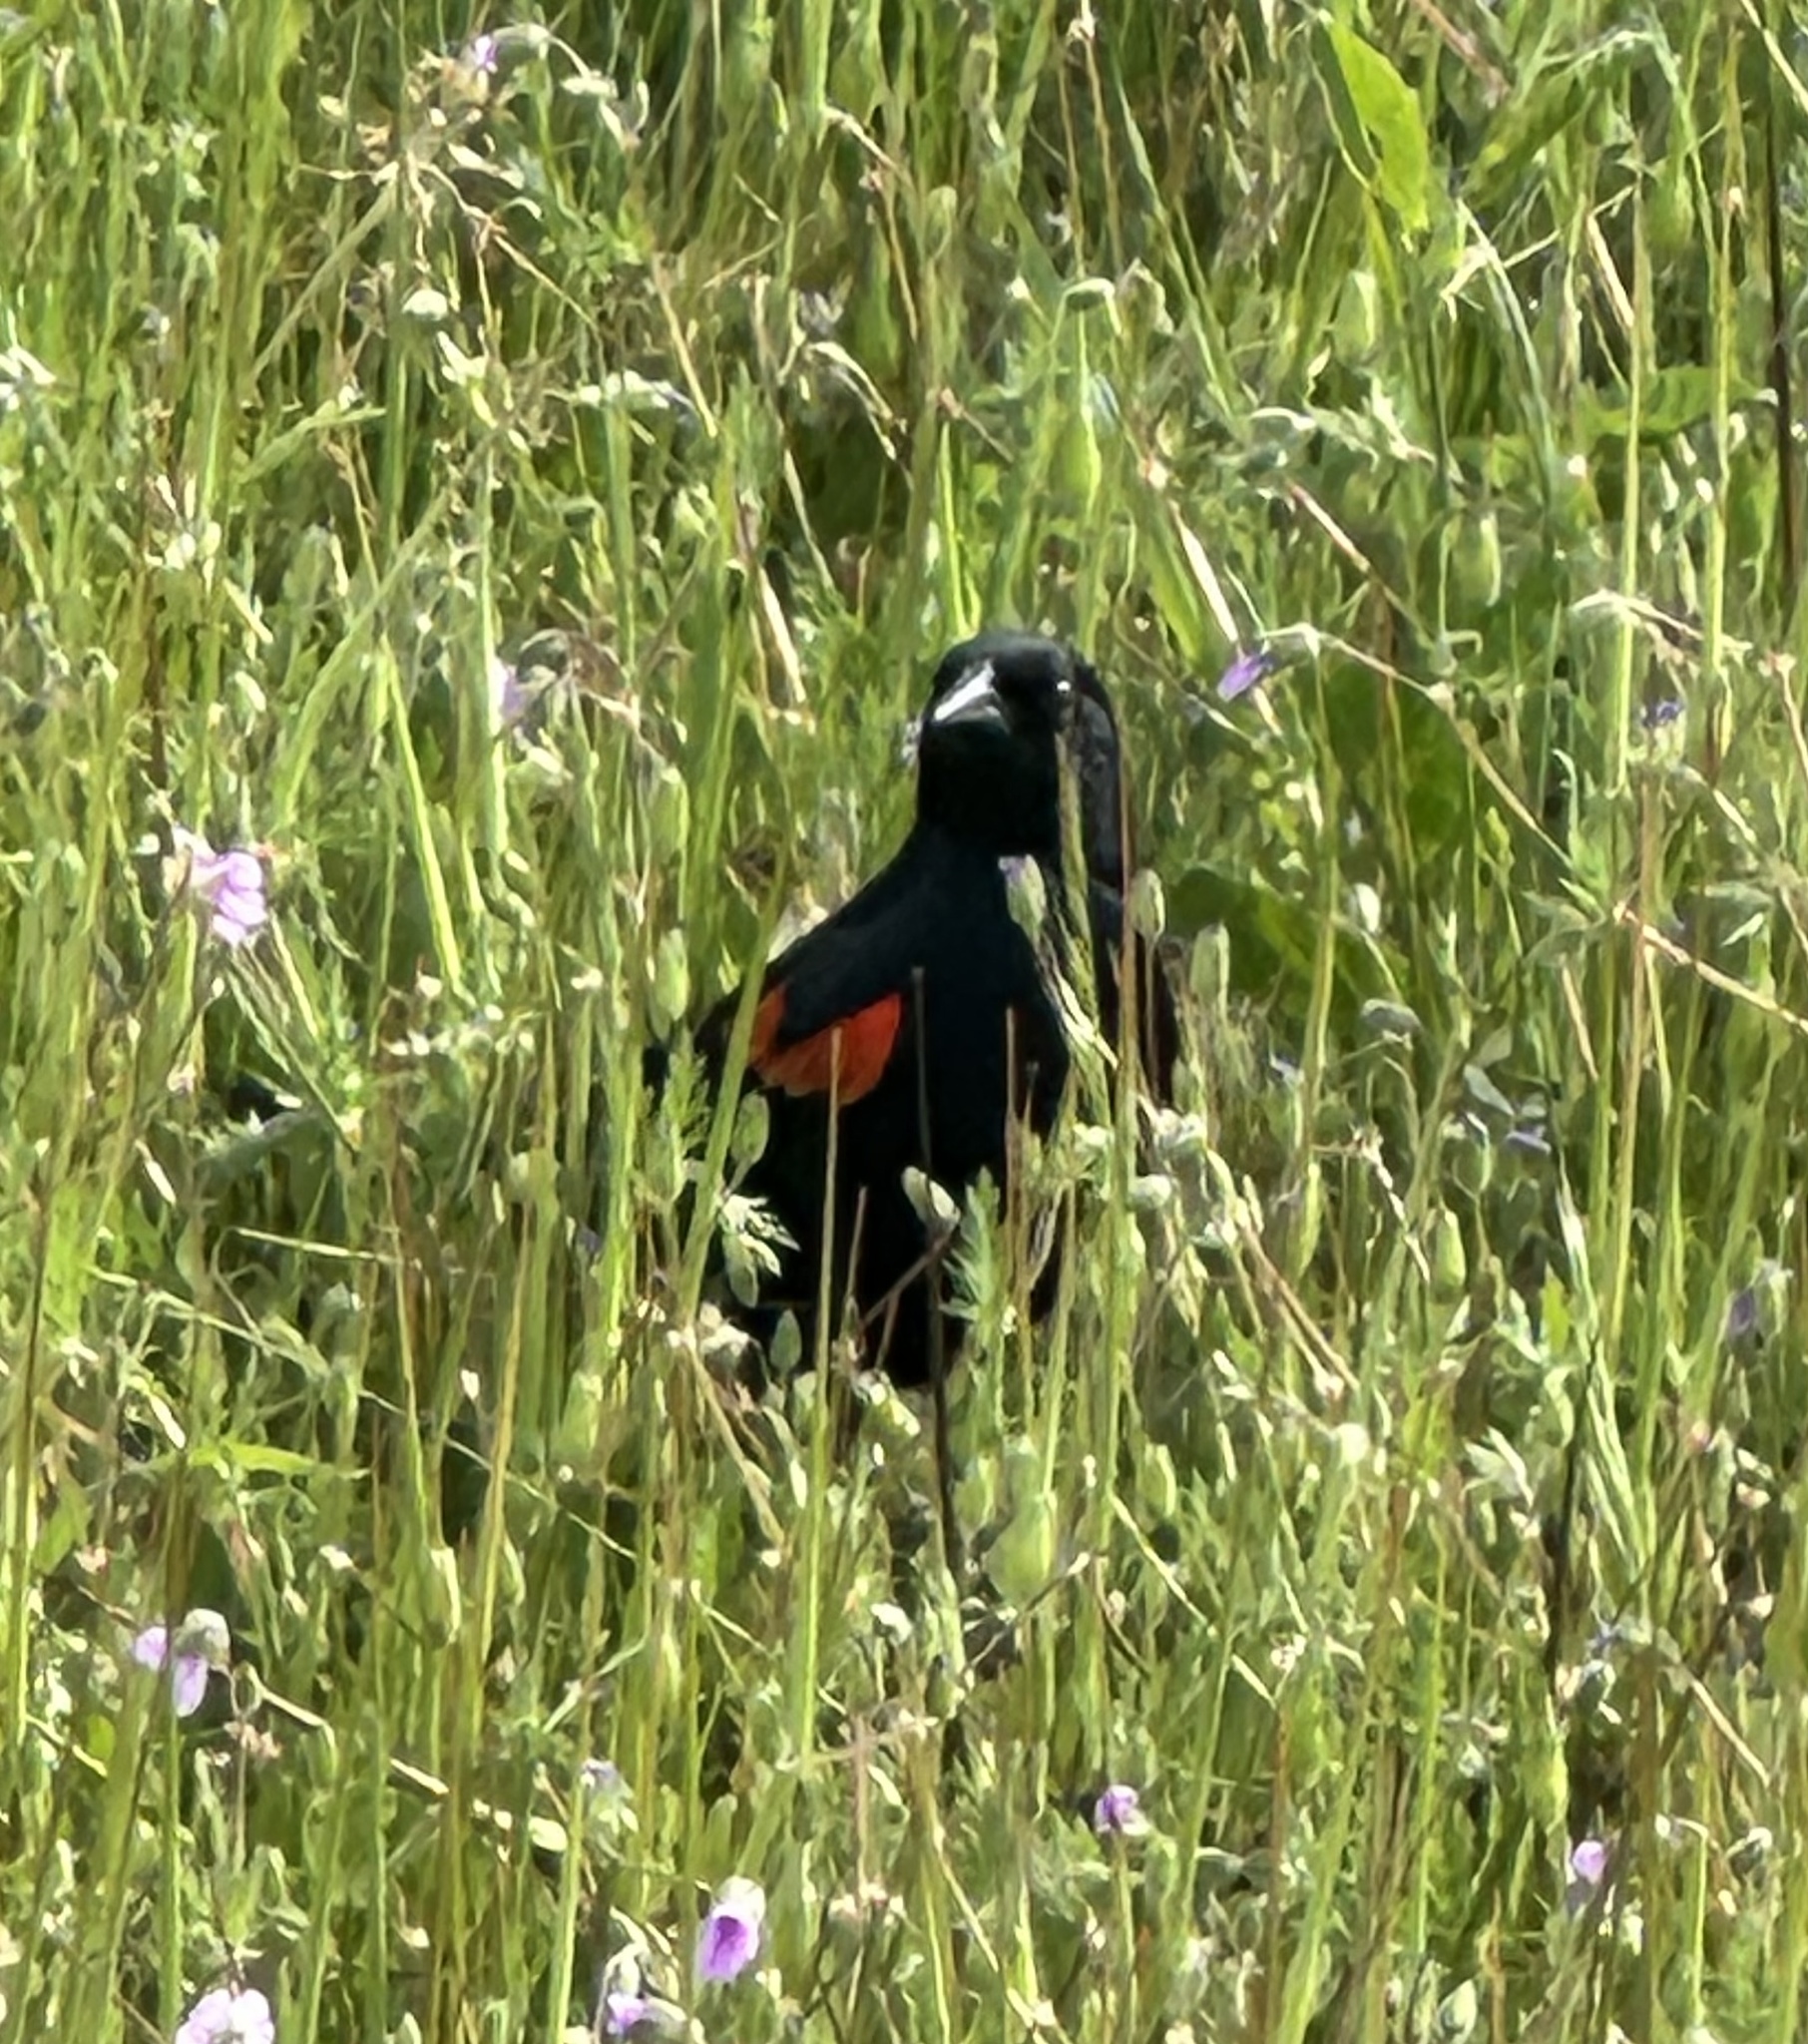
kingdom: Animalia
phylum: Chordata
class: Aves
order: Passeriformes
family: Icteridae
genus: Agelaius
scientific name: Agelaius phoeniceus
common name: Red-winged blackbird
